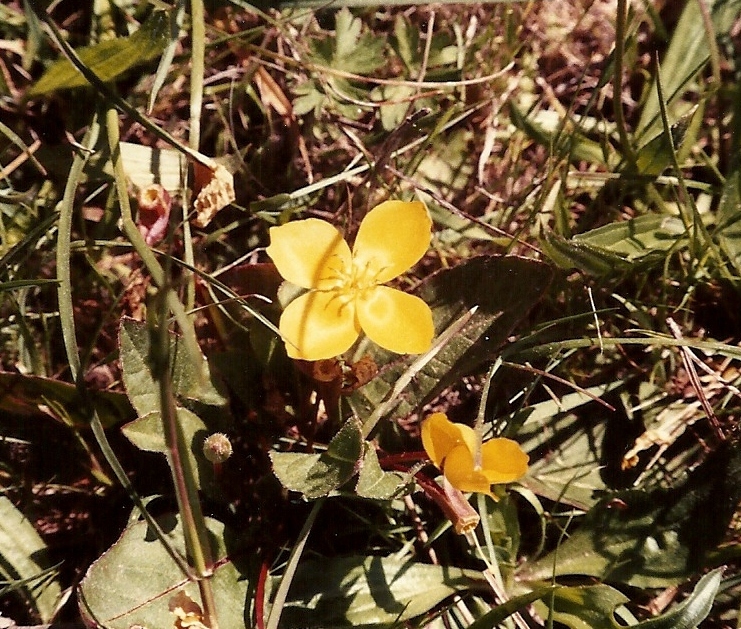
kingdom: Plantae
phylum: Tracheophyta
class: Magnoliopsida
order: Myrtales
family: Onagraceae
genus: Taraxia
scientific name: Taraxia ovata
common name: Goldeneggs
